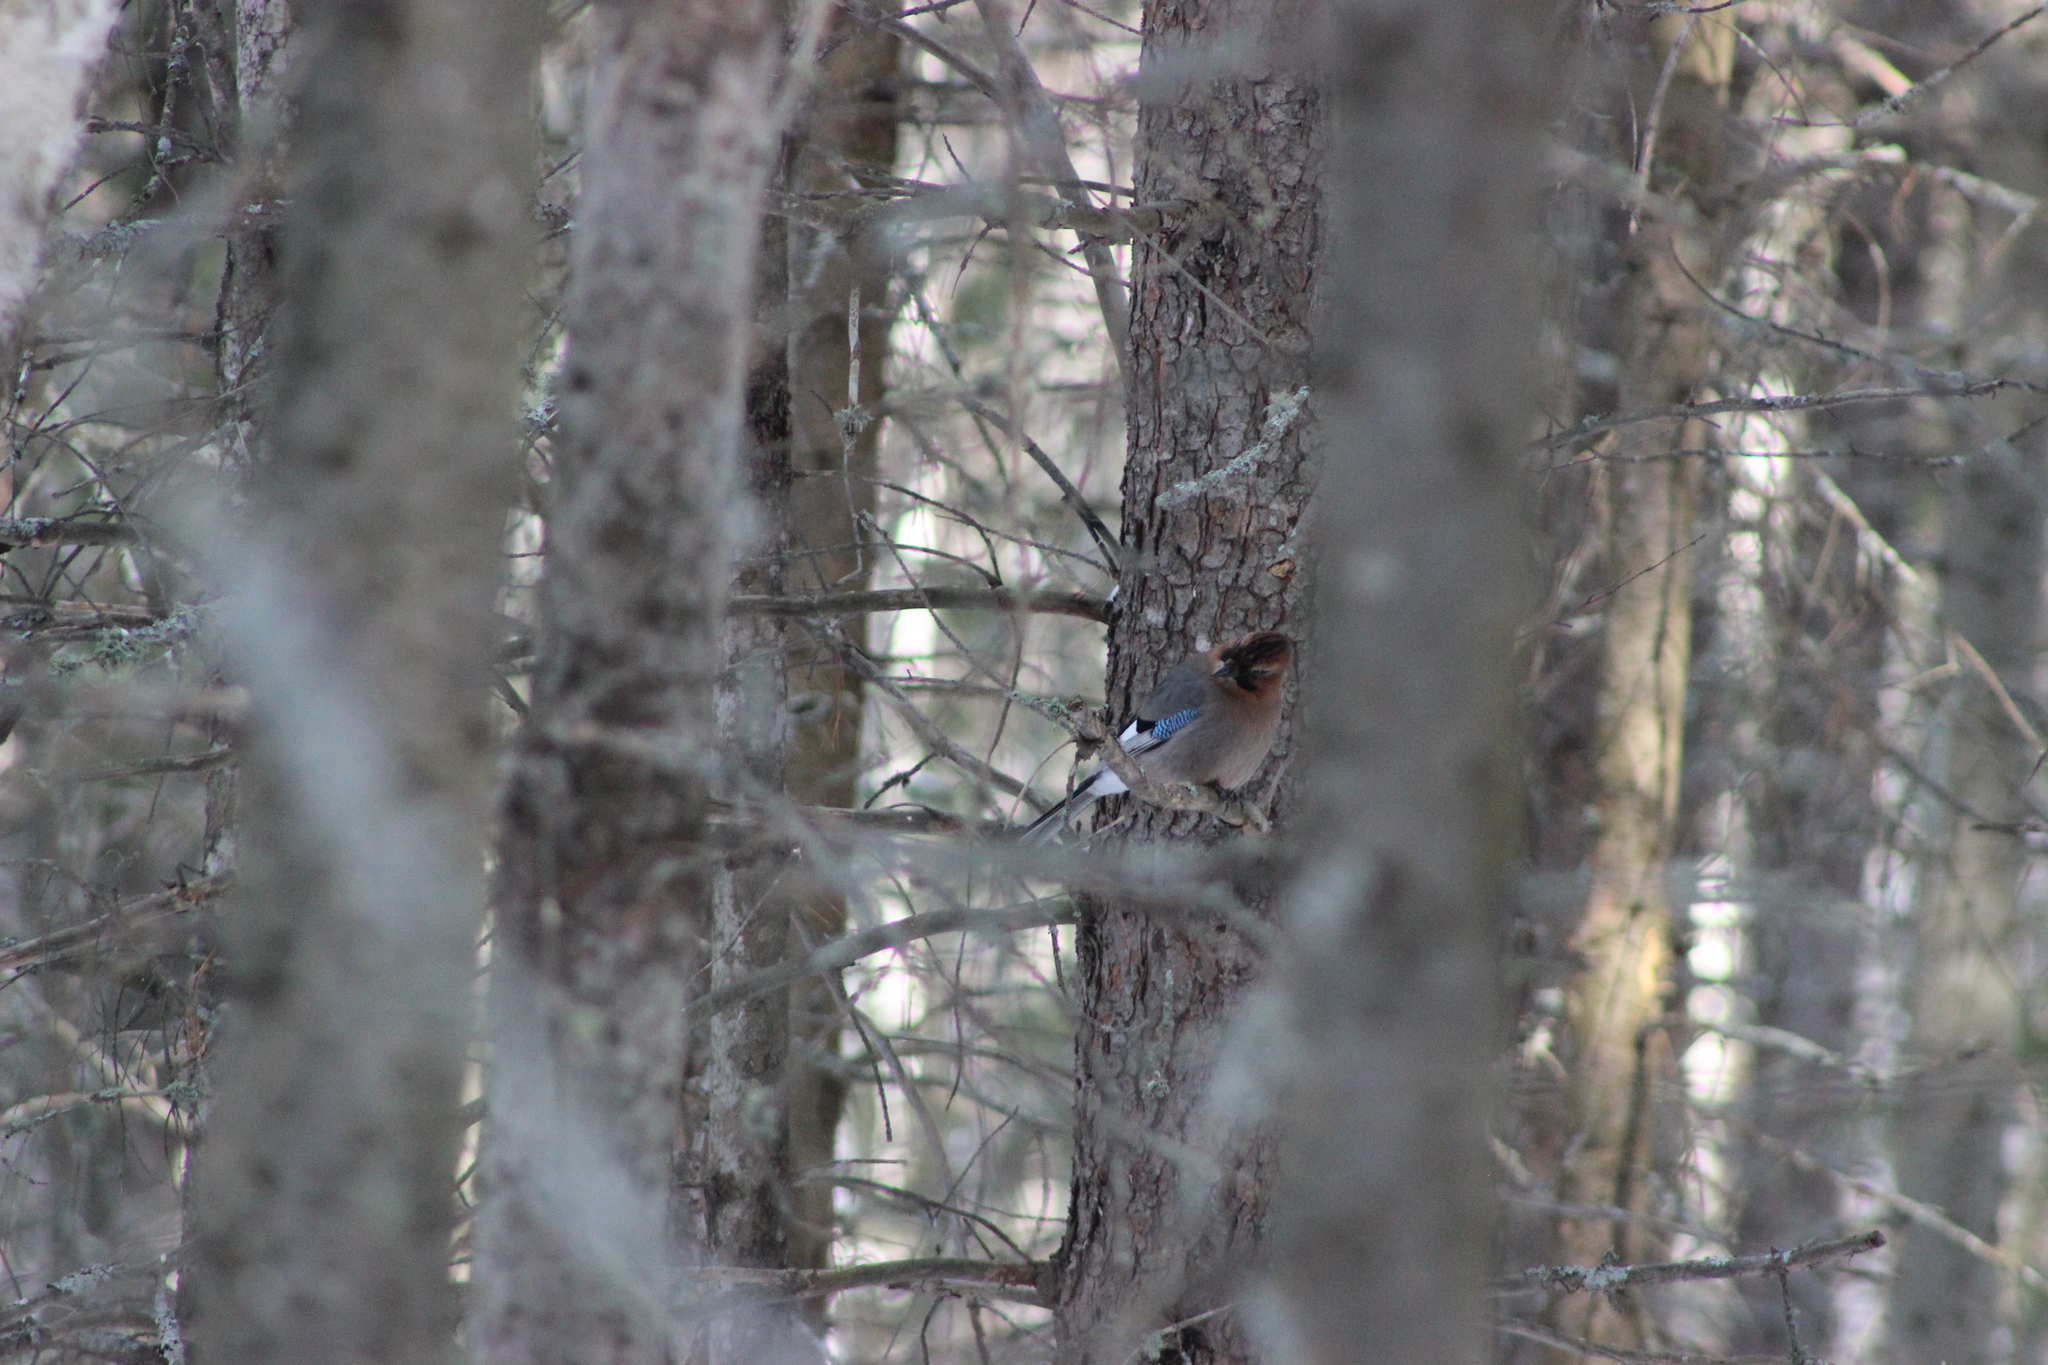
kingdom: Animalia
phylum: Chordata
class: Aves
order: Passeriformes
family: Corvidae
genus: Garrulus
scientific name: Garrulus glandarius
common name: Eurasian jay
